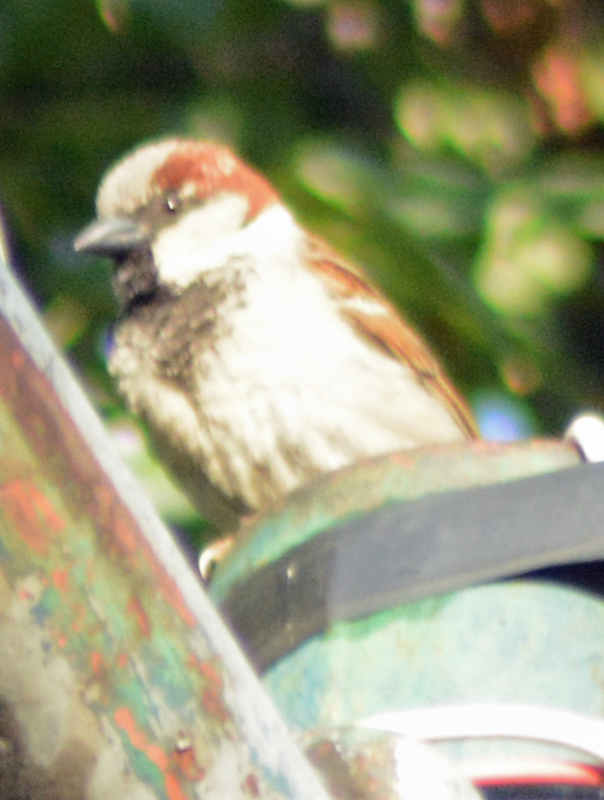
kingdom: Animalia
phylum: Chordata
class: Aves
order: Passeriformes
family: Passeridae
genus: Passer
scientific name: Passer domesticus
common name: House sparrow
